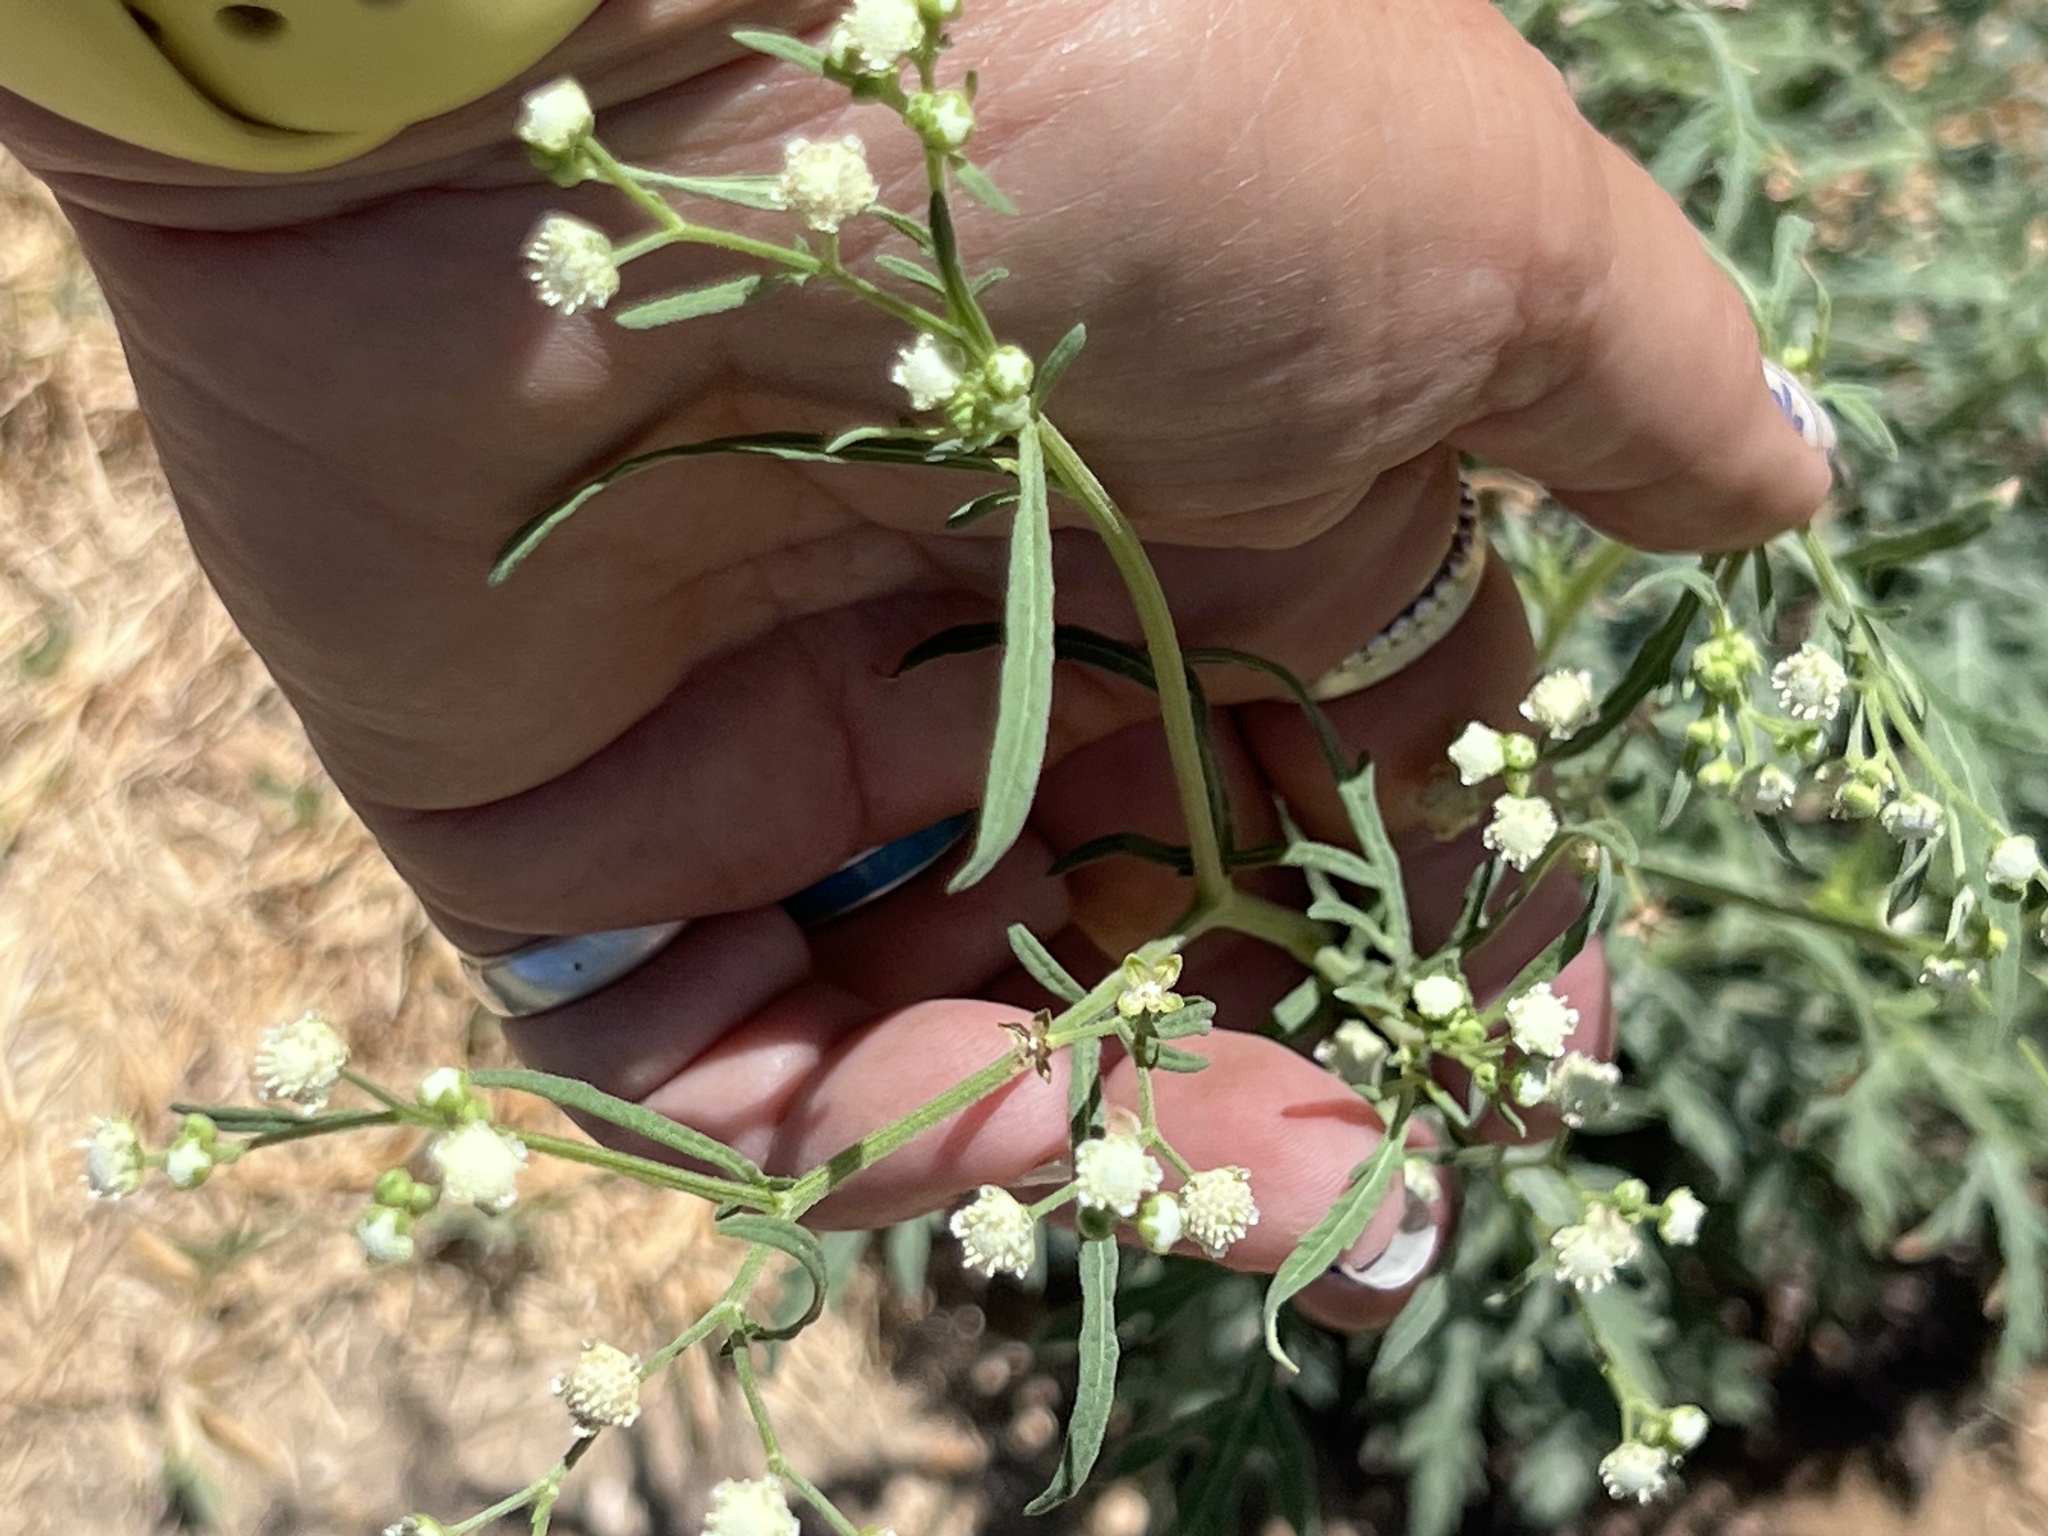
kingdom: Plantae
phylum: Tracheophyta
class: Magnoliopsida
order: Asterales
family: Asteraceae
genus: Parthenium
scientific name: Parthenium hysterophorus
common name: Santa maria feverfew
